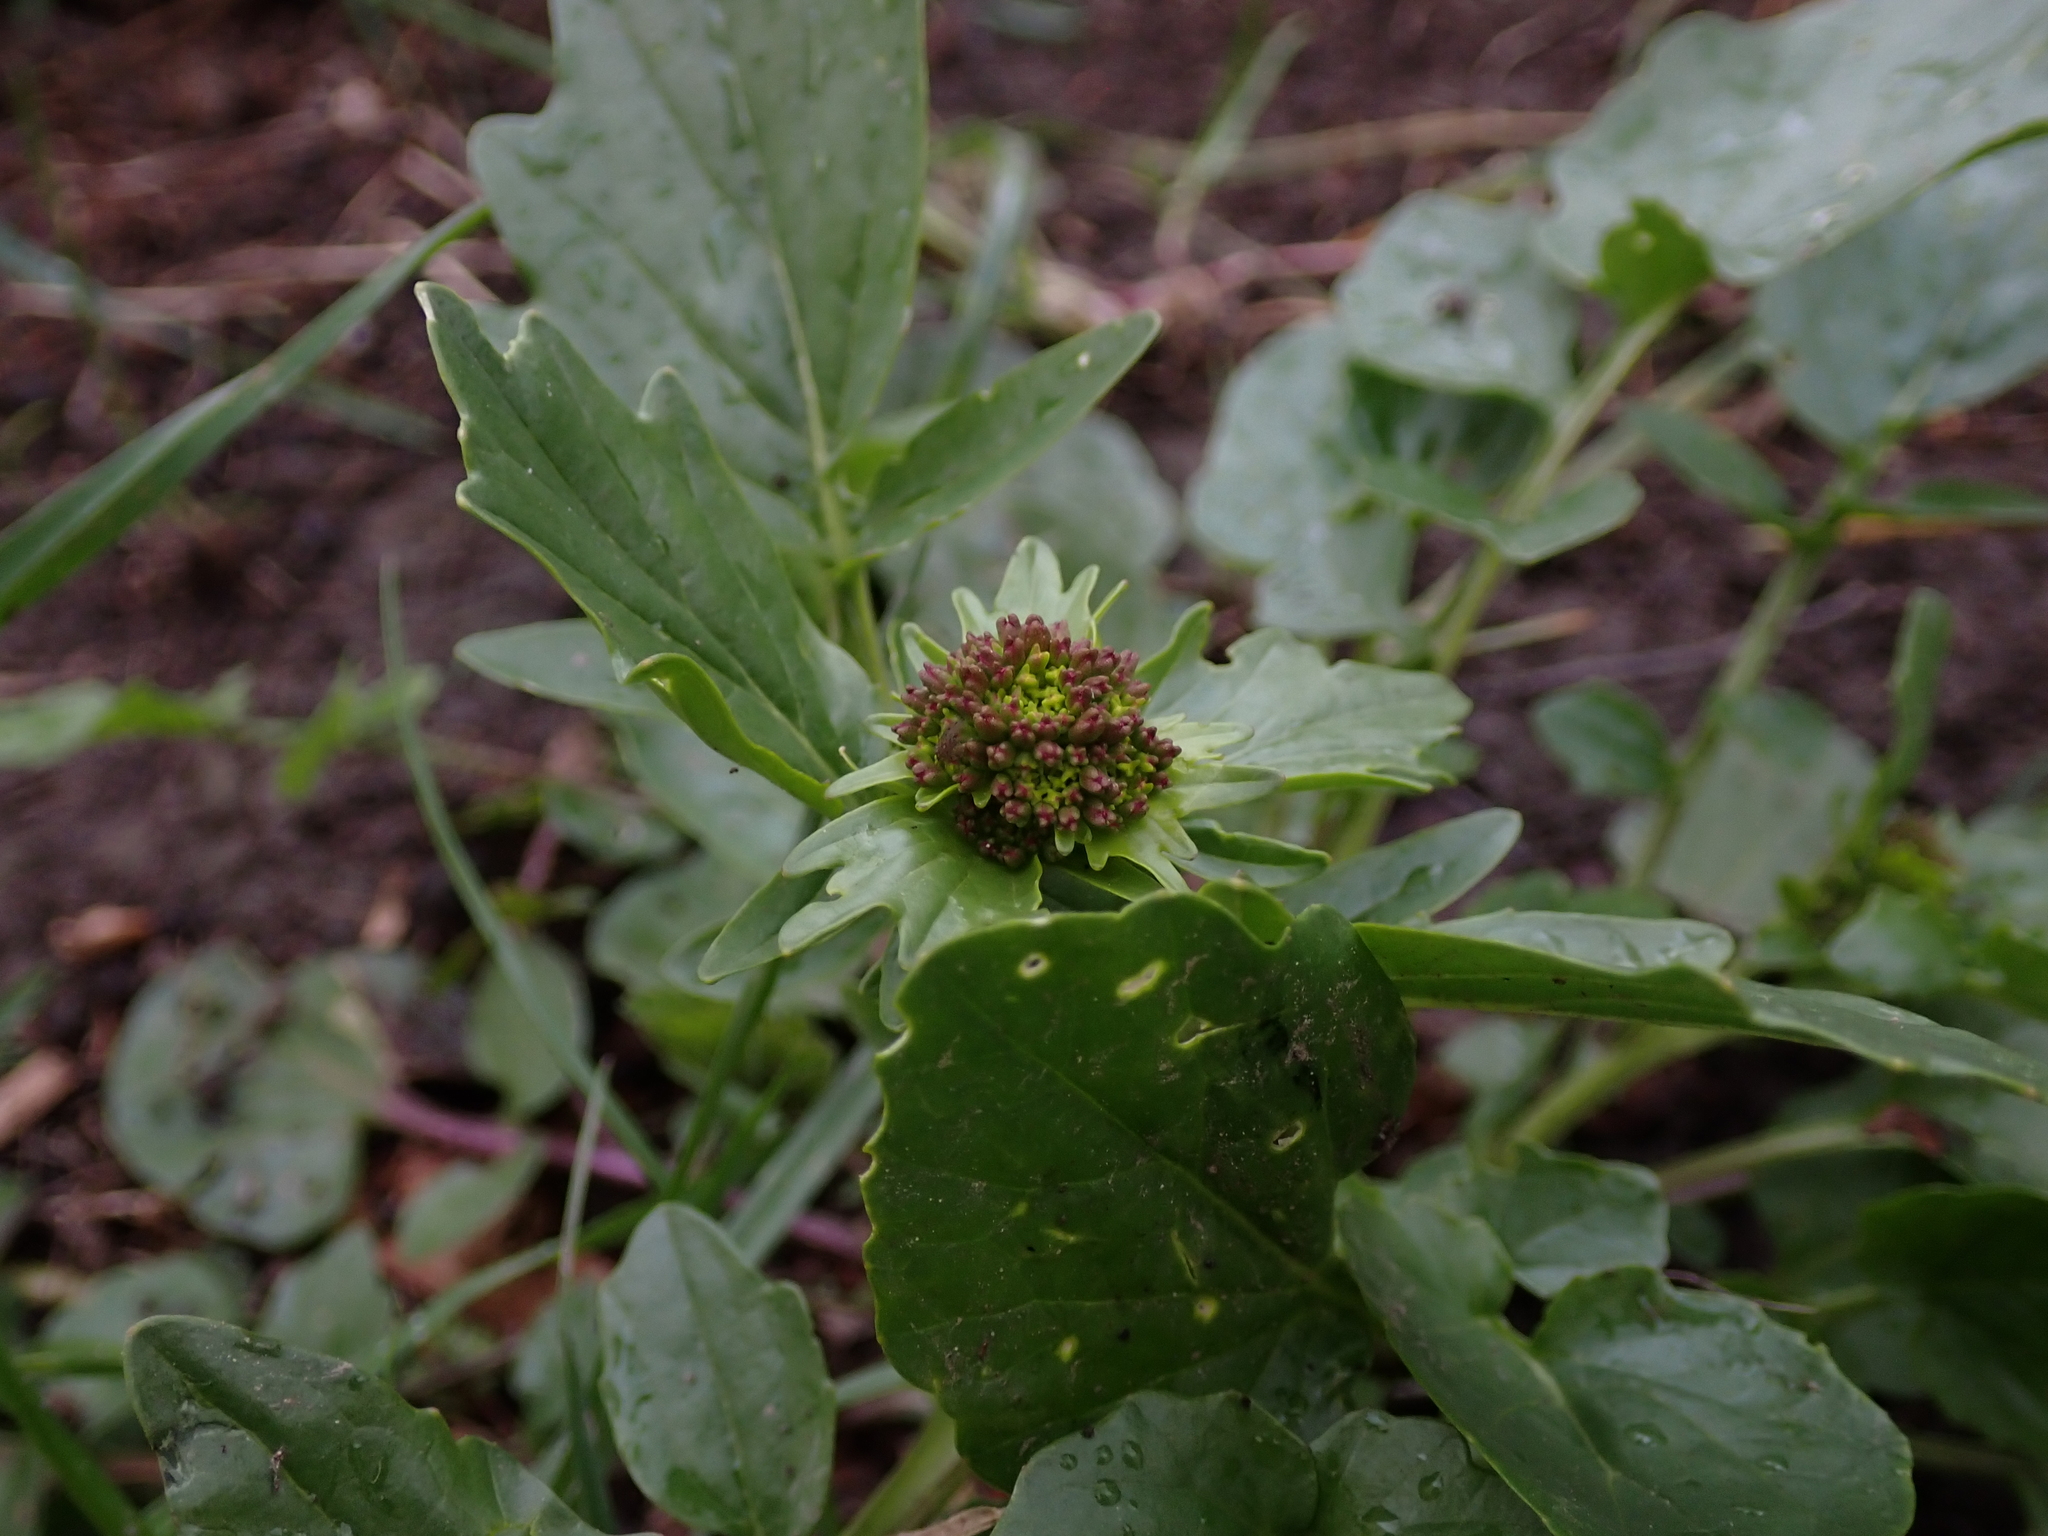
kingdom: Plantae
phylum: Tracheophyta
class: Magnoliopsida
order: Brassicales
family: Brassicaceae
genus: Barbarea
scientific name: Barbarea vulgaris
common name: Cressy-greens
